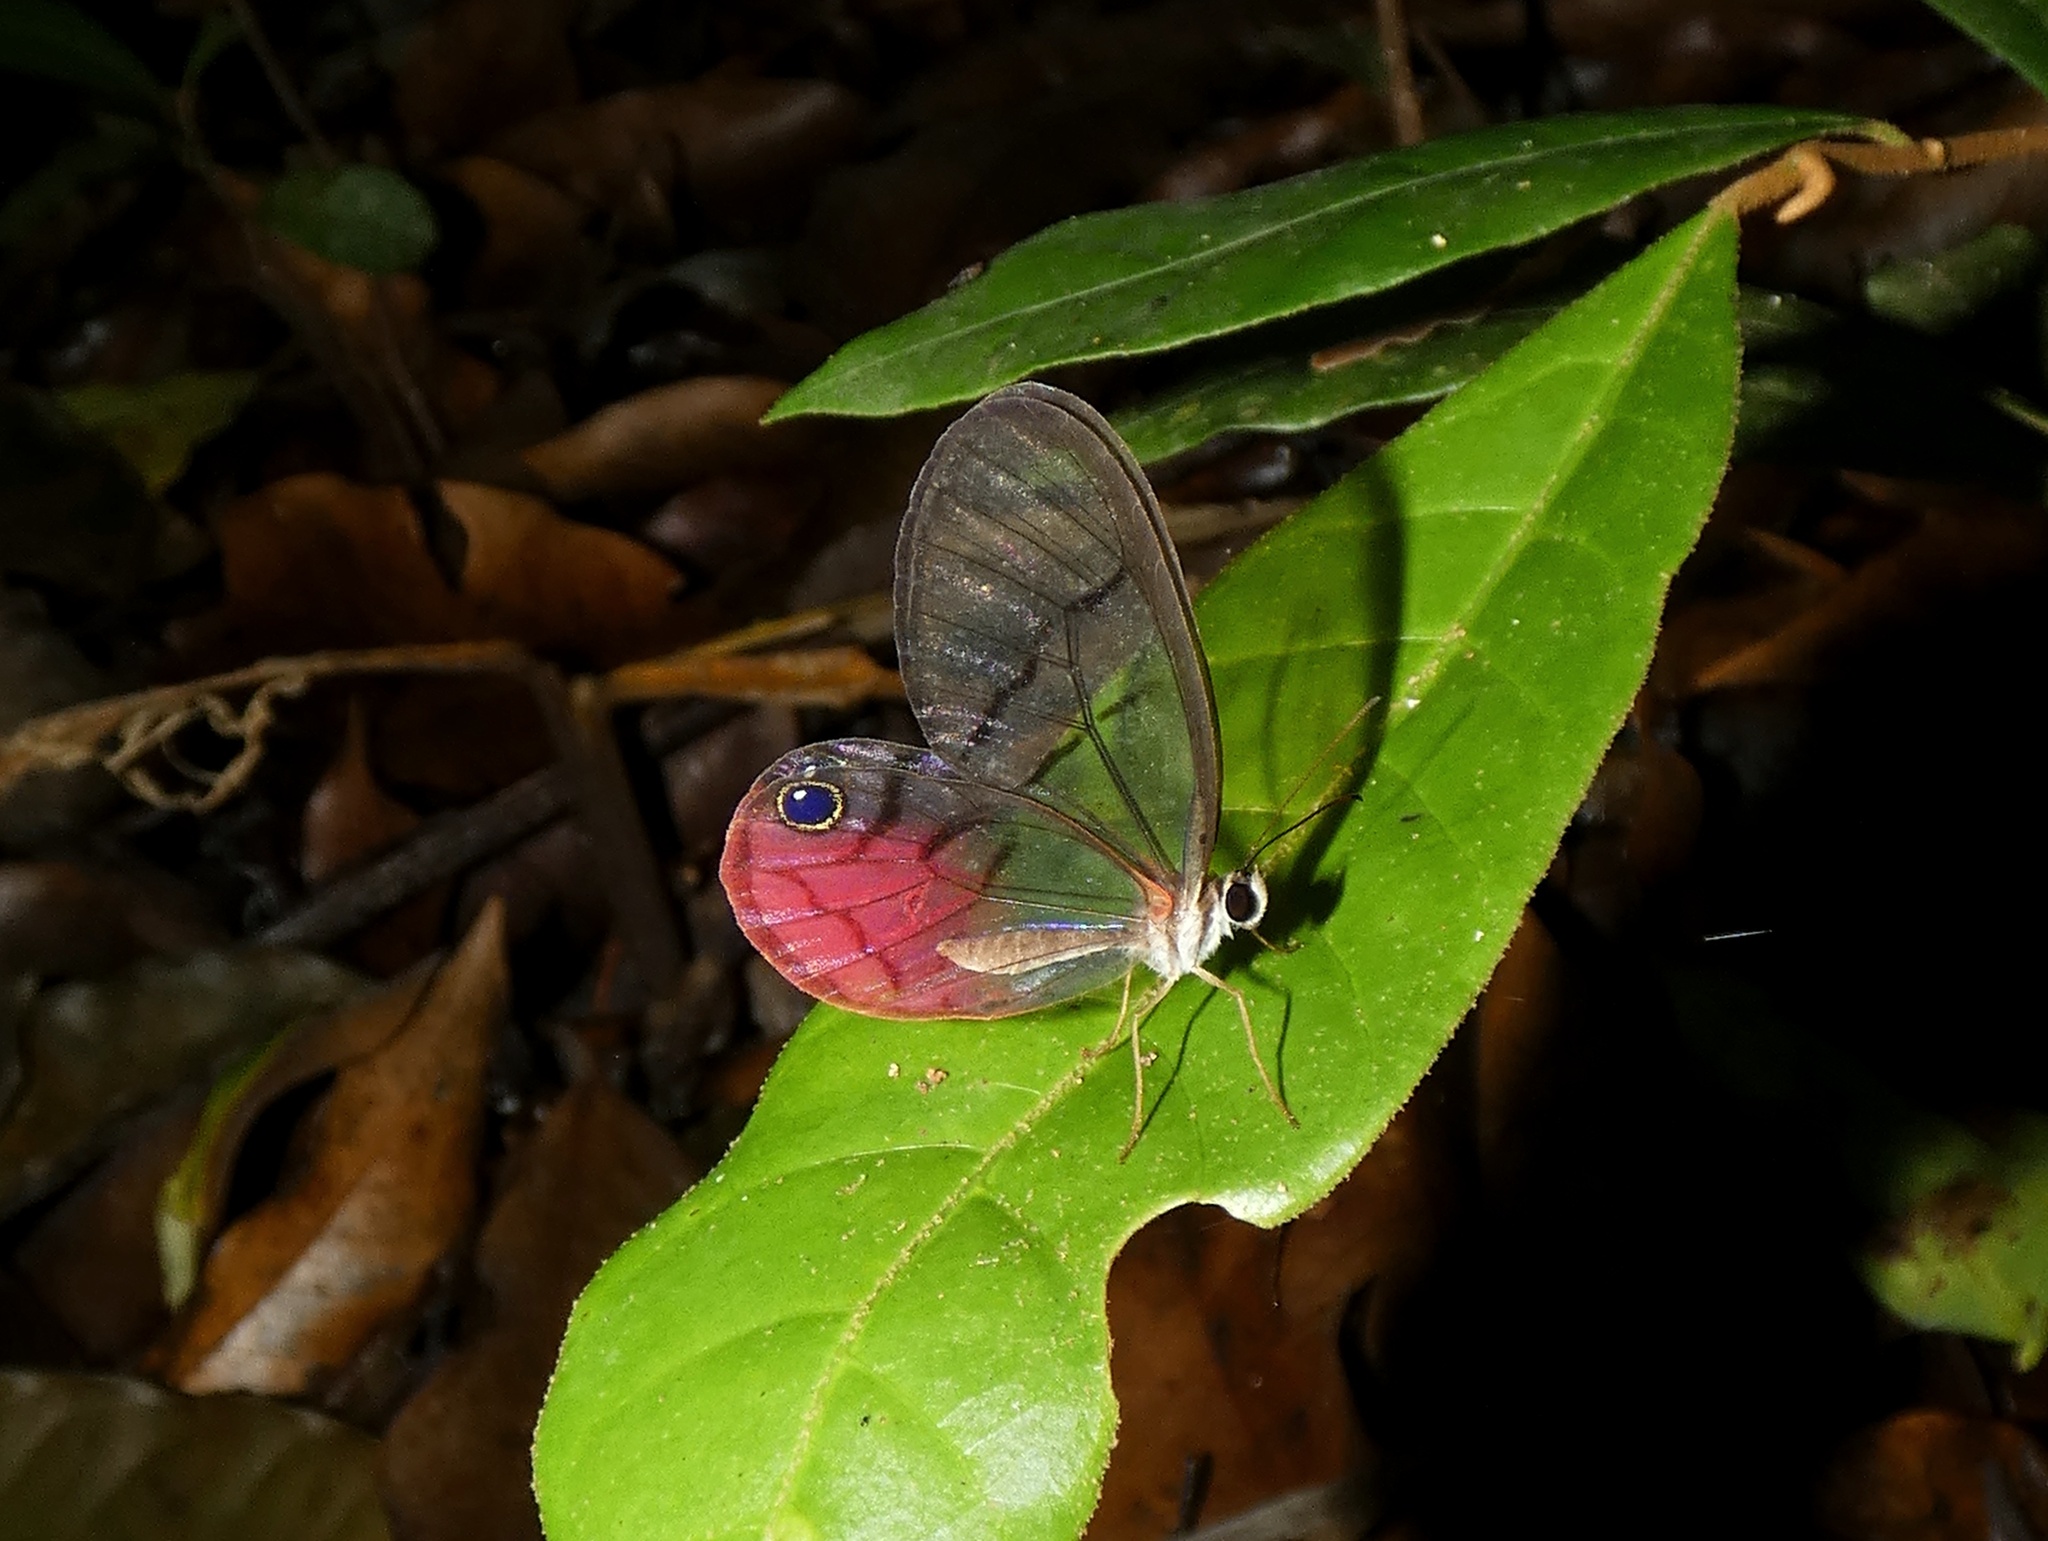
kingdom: Animalia
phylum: Arthropoda
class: Insecta
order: Lepidoptera
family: Nymphalidae
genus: Cithaerias
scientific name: Cithaerias pireta
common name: Rusted clearwing-satyr
